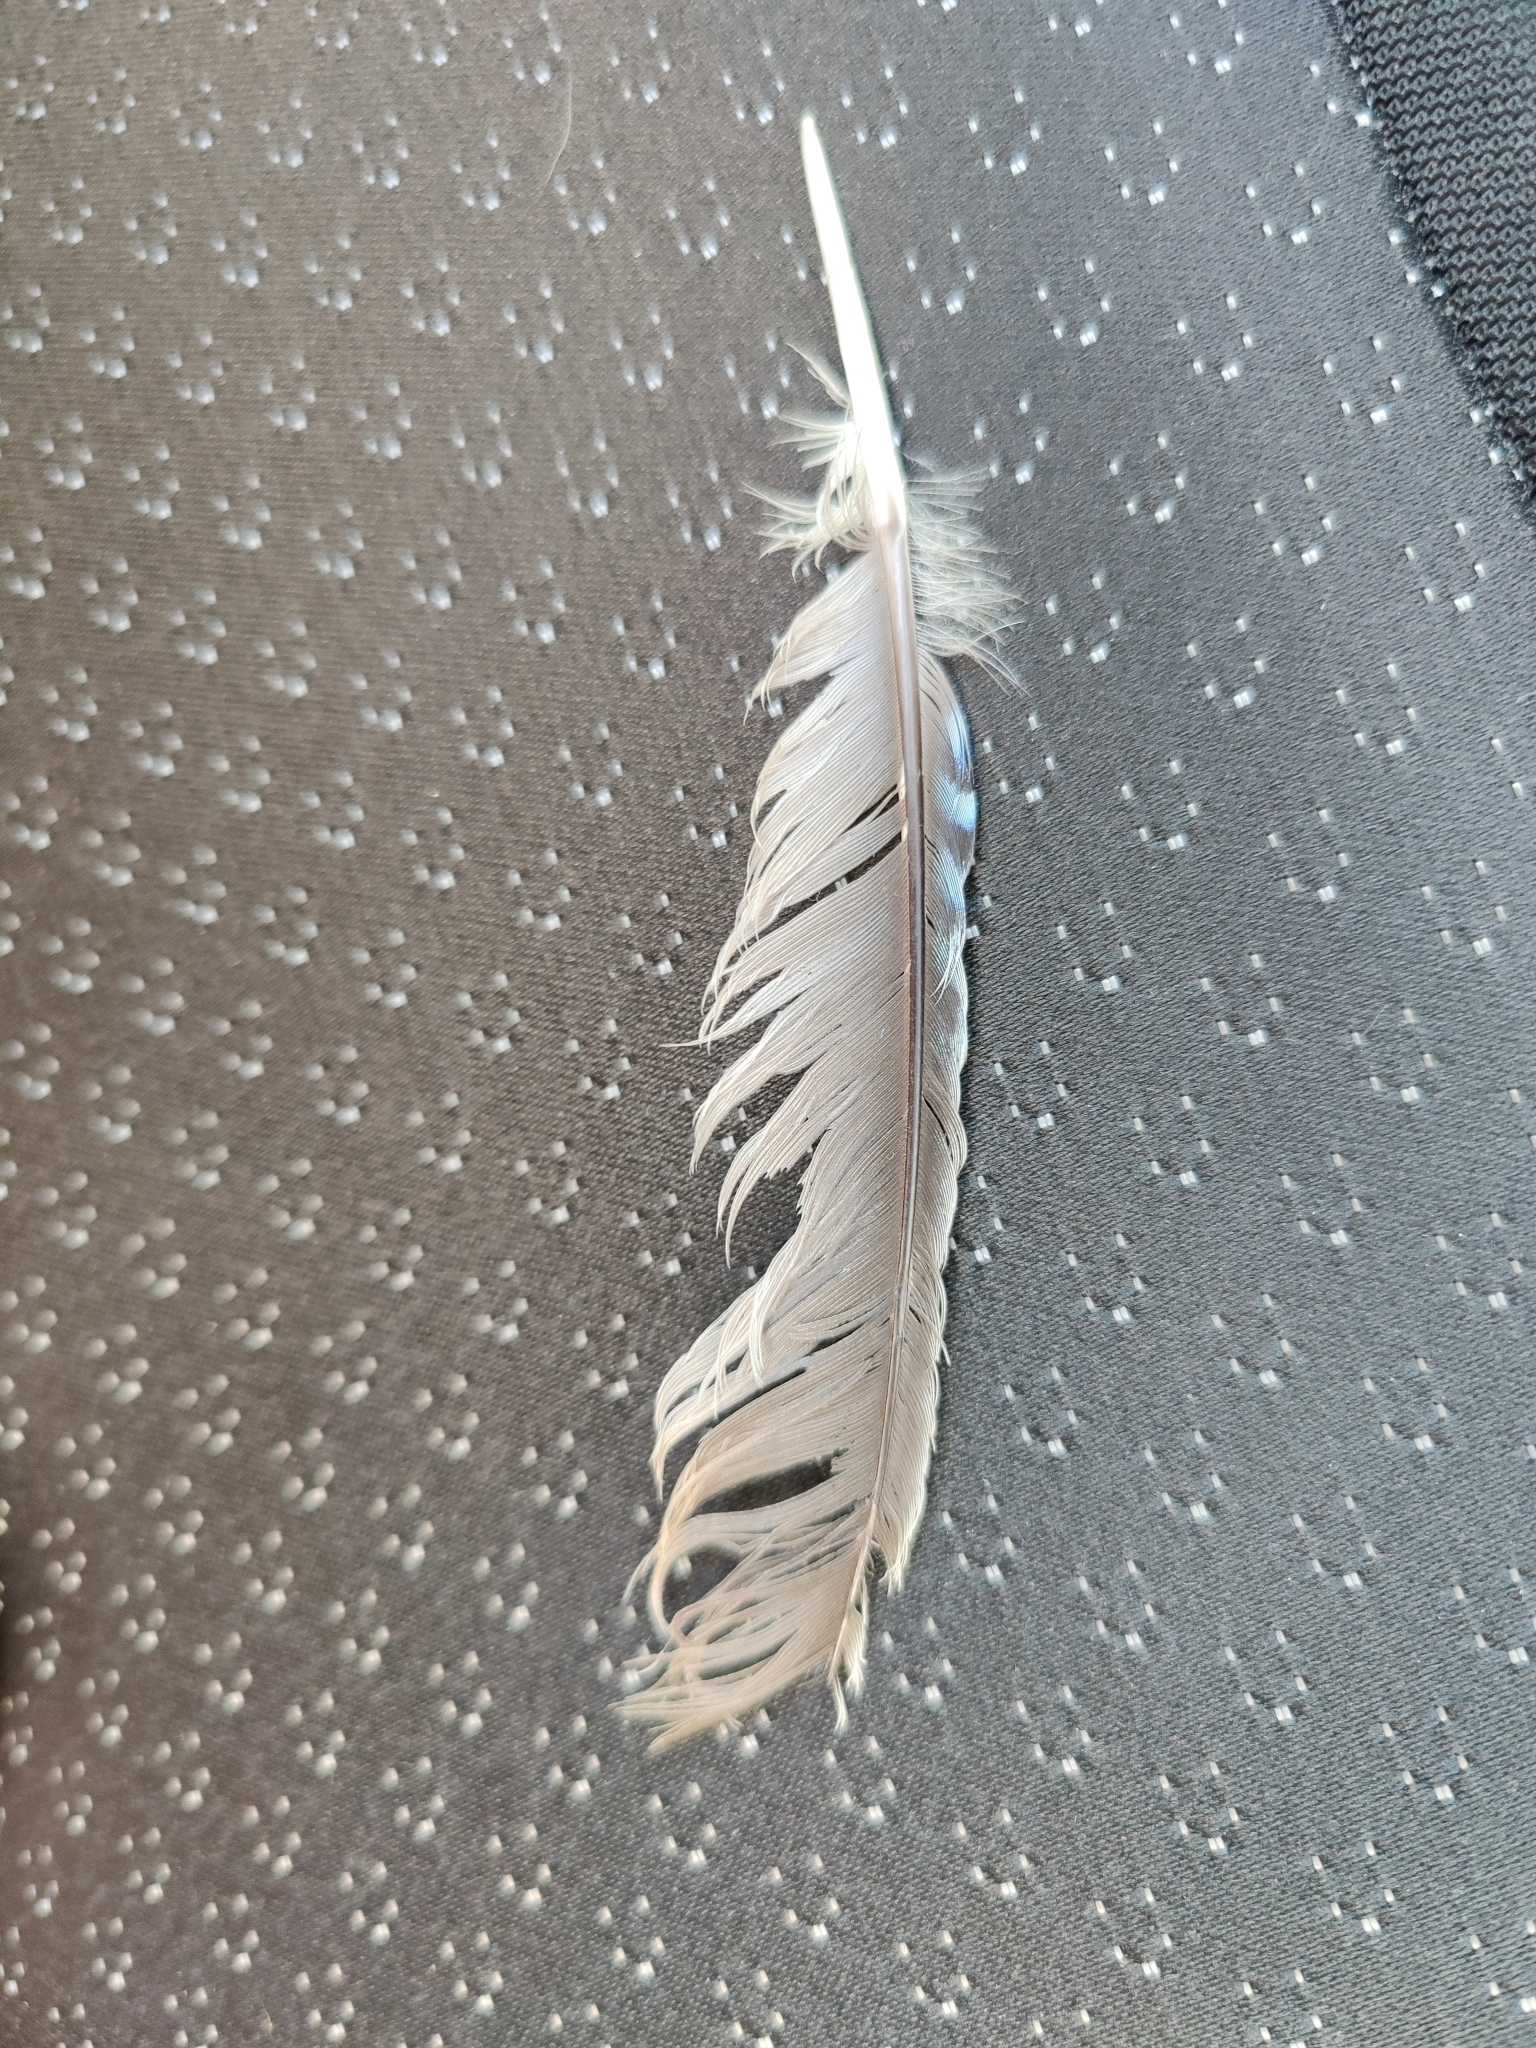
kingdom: Animalia
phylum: Chordata
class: Aves
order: Passeriformes
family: Corvidae
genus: Garrulus
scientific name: Garrulus glandarius
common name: Eurasian jay
